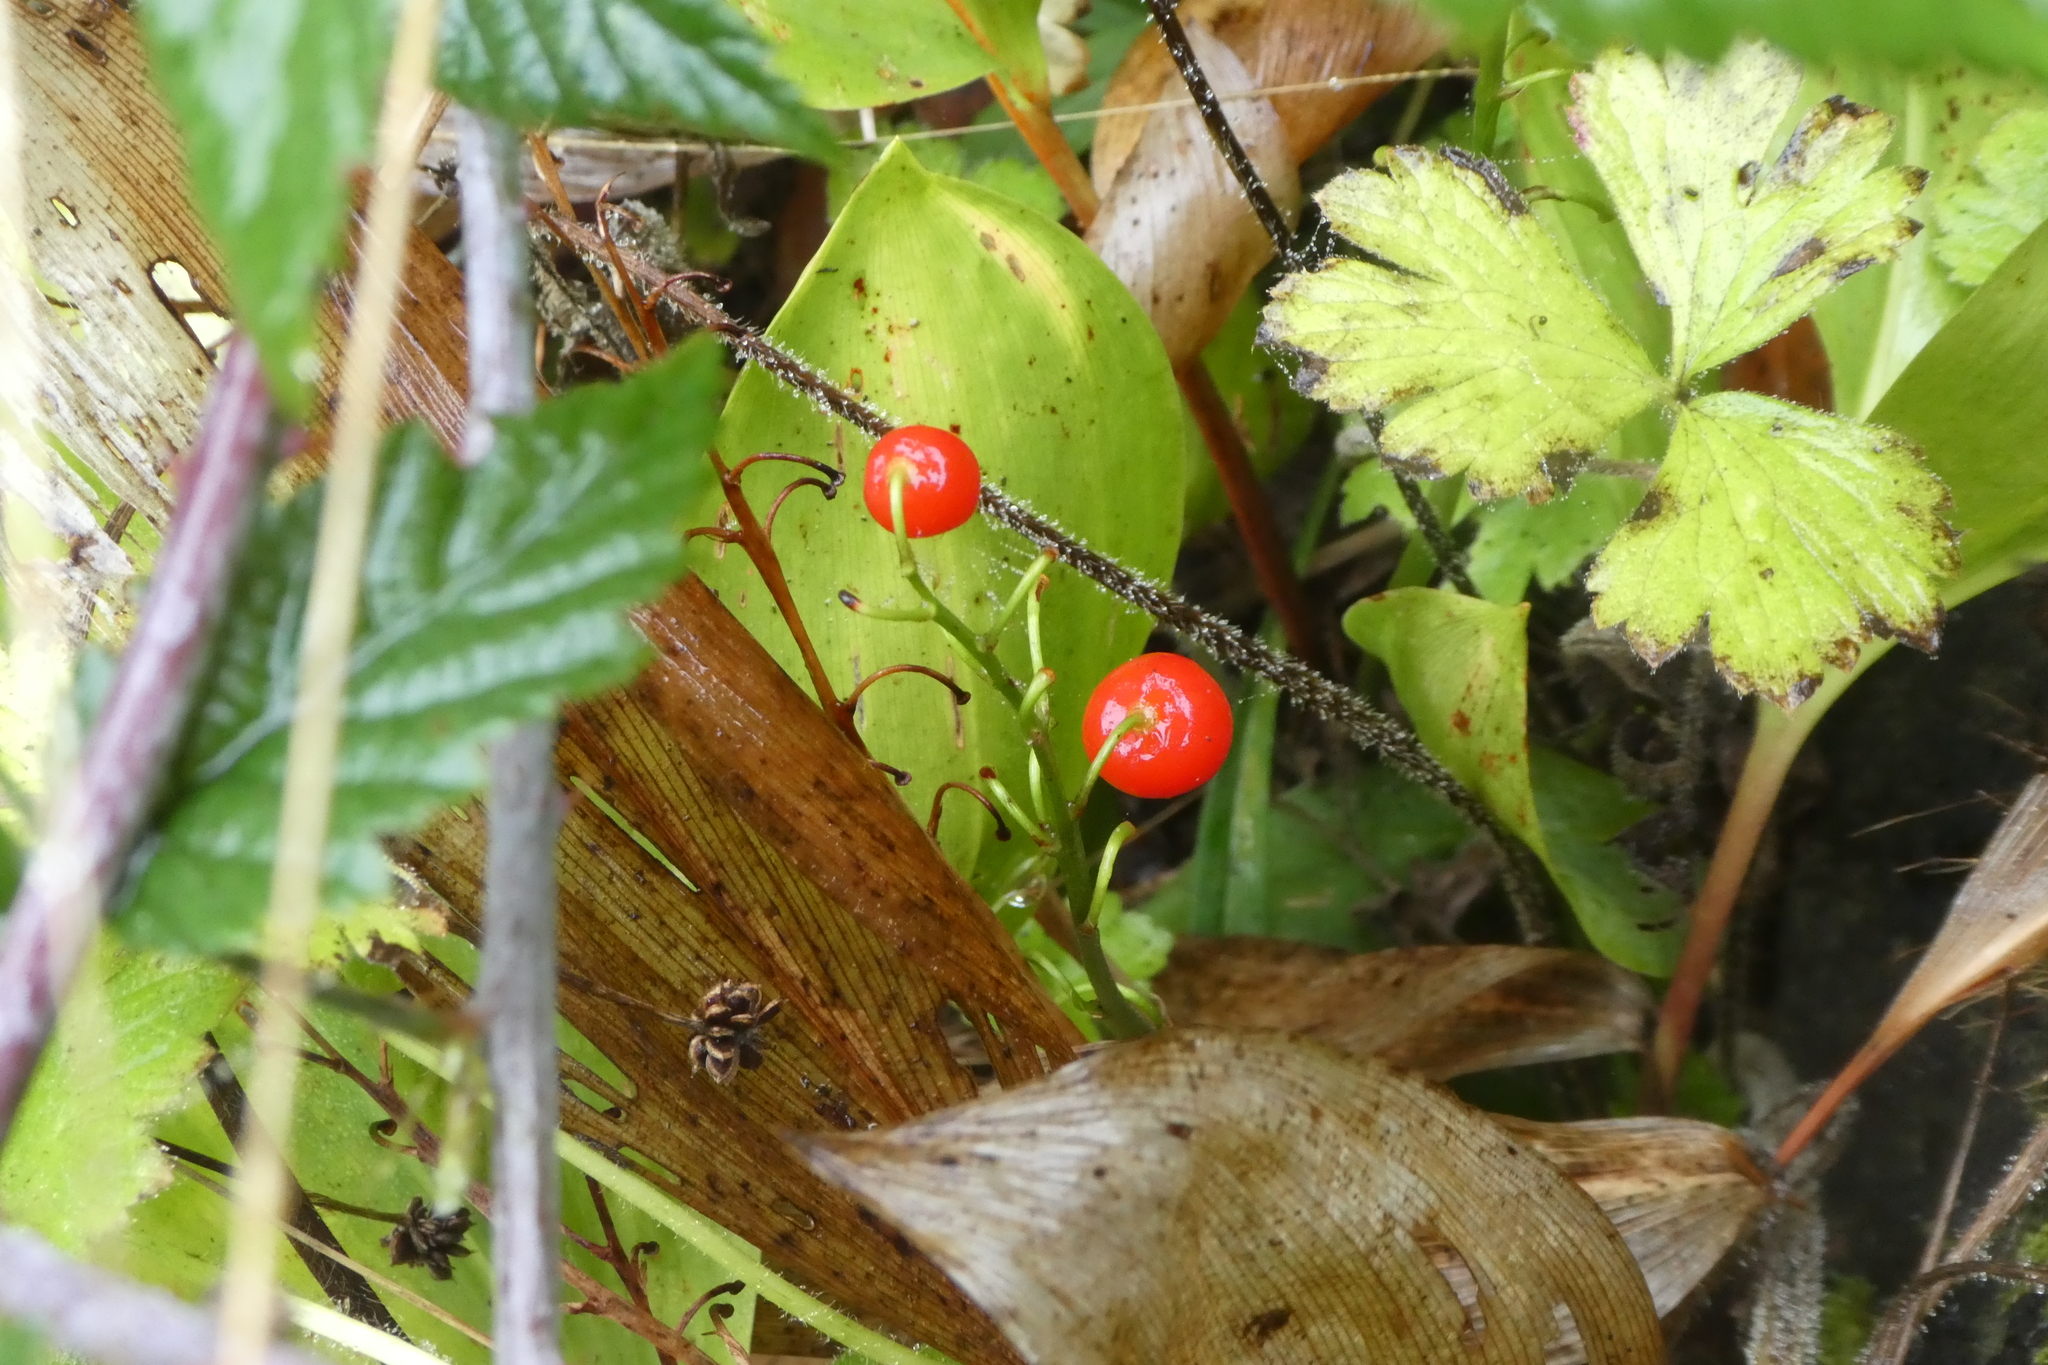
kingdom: Plantae
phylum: Tracheophyta
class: Liliopsida
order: Asparagales
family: Asparagaceae
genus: Convallaria
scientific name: Convallaria majalis
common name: Lily-of-the-valley
